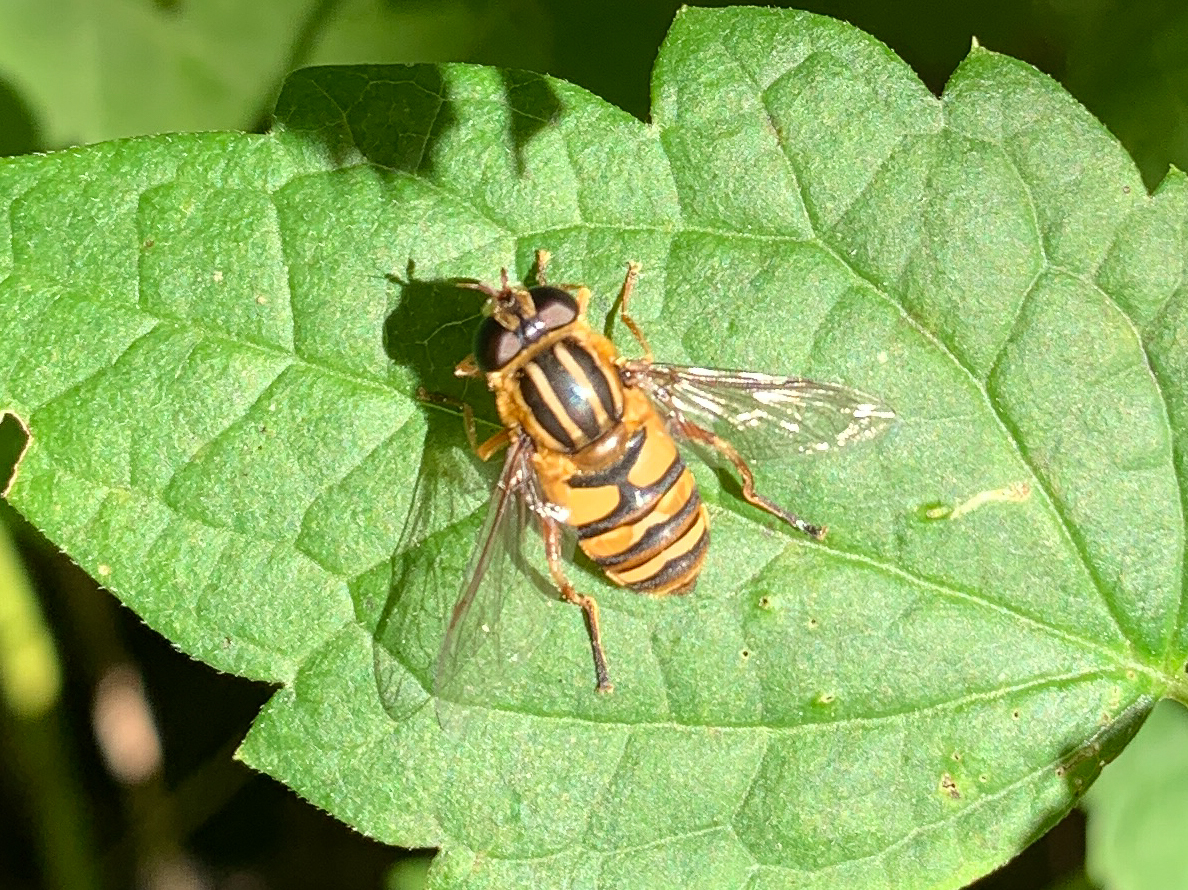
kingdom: Animalia
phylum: Arthropoda
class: Insecta
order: Diptera
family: Syrphidae
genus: Helophilus
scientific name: Helophilus fasciatus
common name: Narrow-headed marsh fly
